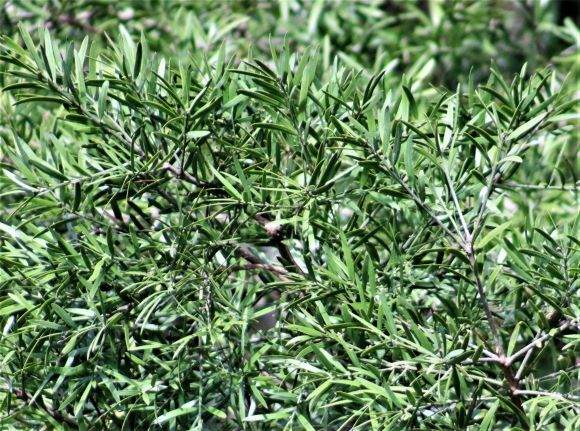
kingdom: Plantae
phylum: Tracheophyta
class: Pinopsida
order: Pinales
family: Podocarpaceae
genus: Afrocarpus
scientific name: Afrocarpus falcatus
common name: Bastard yellowwood
